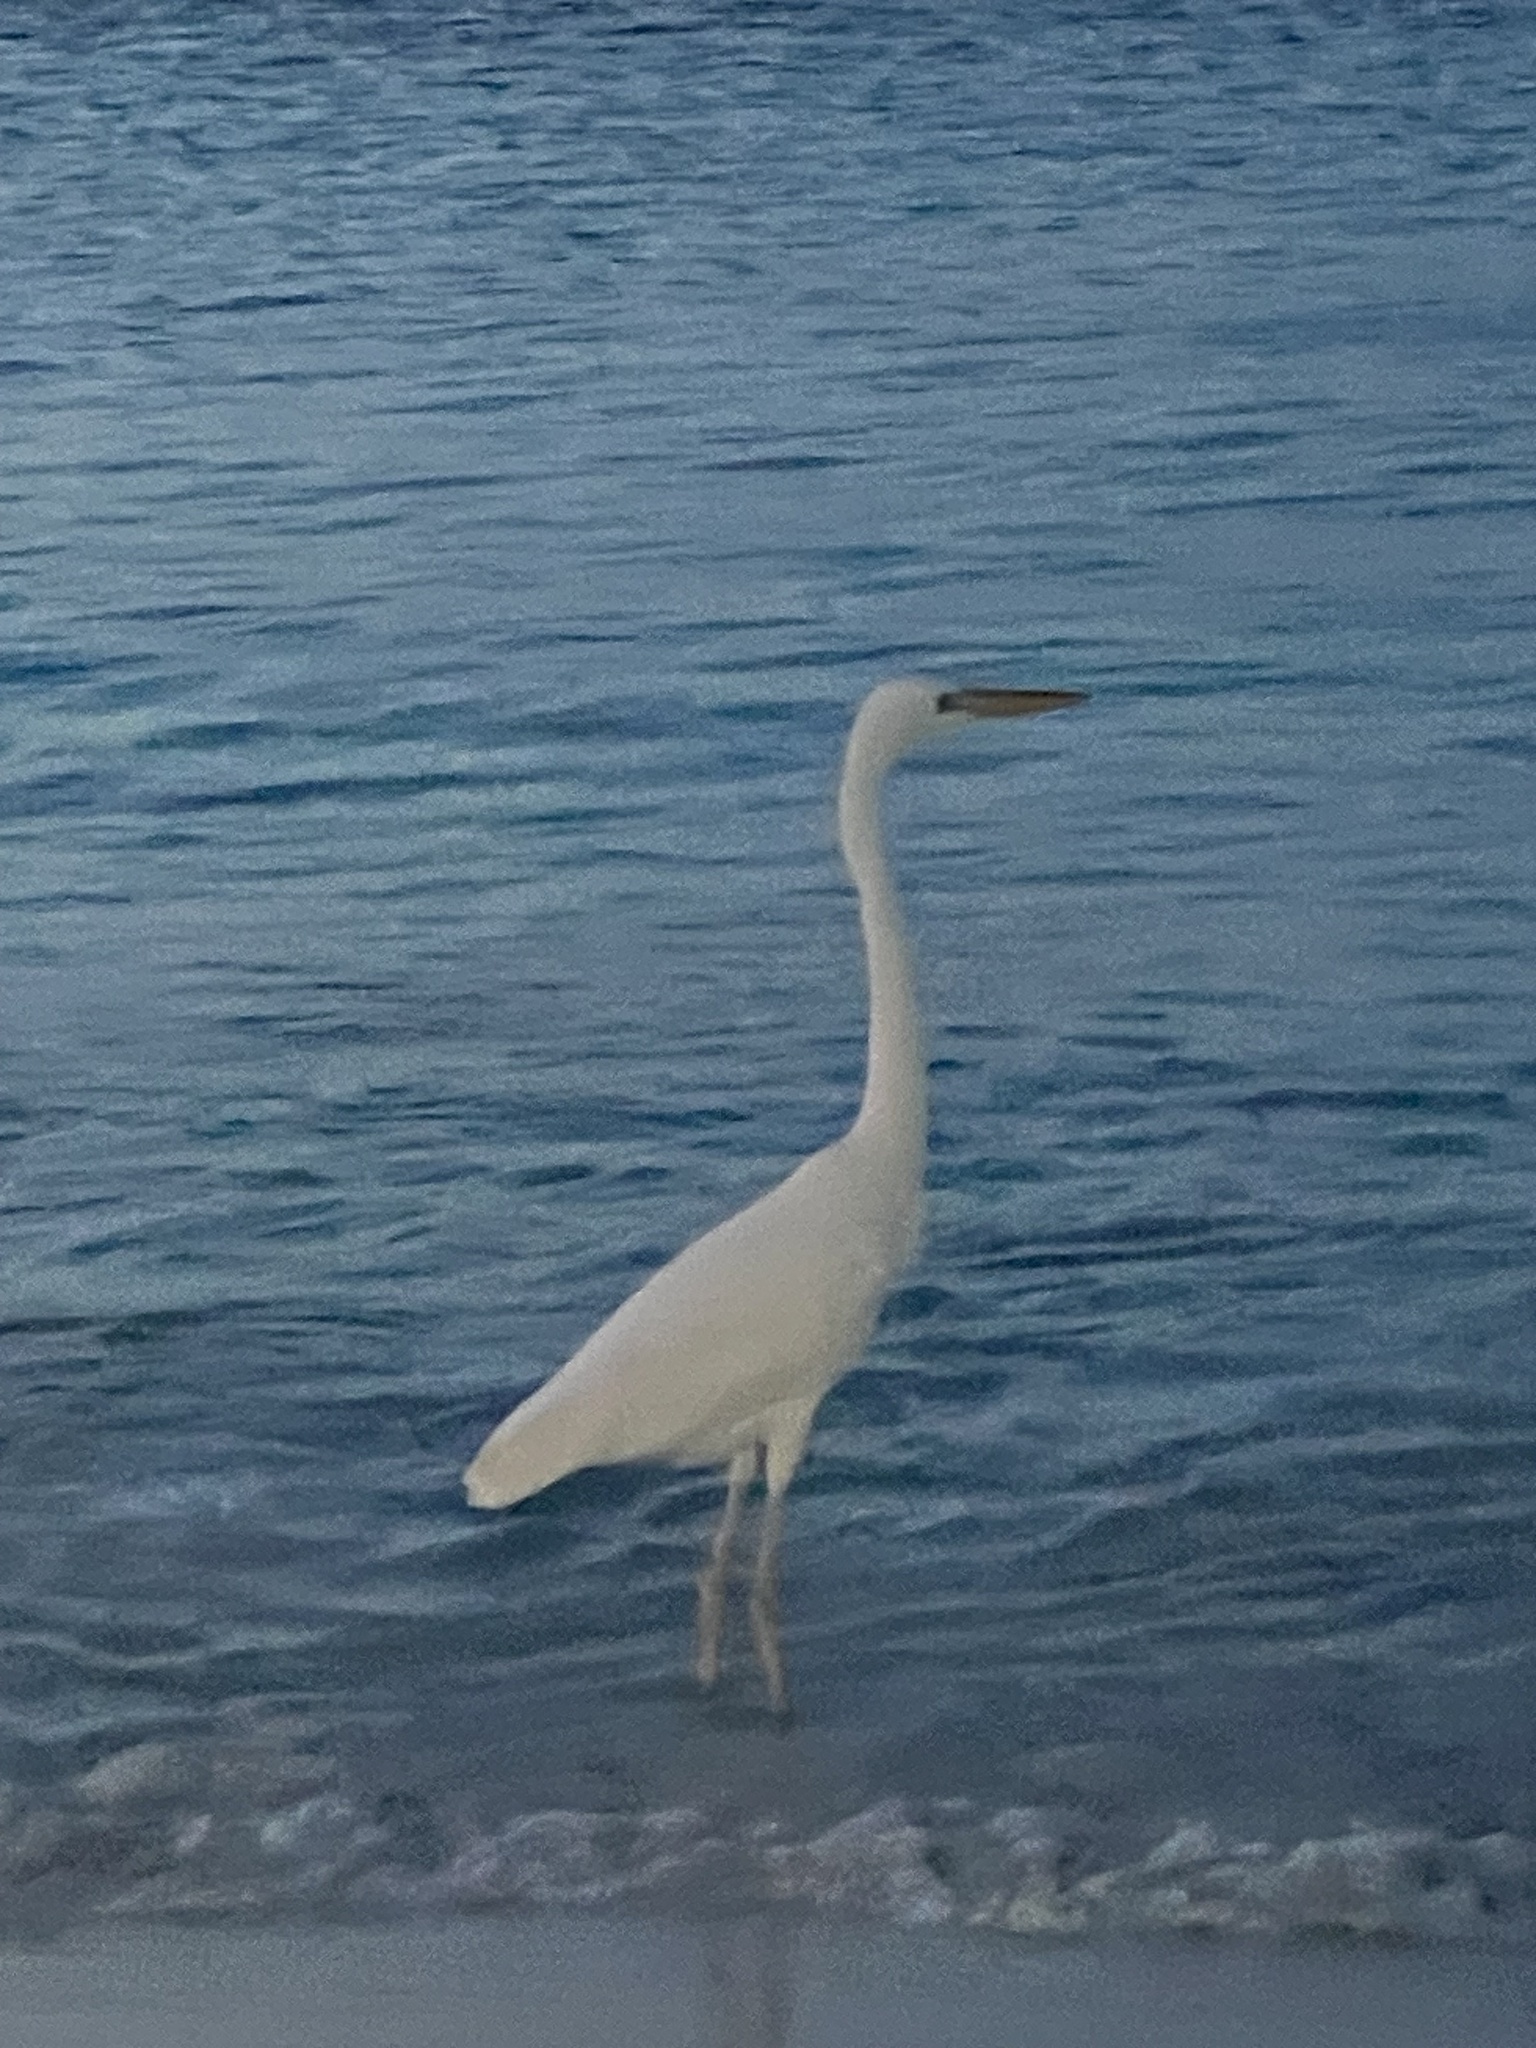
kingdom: Animalia
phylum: Chordata
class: Aves
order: Pelecaniformes
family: Ardeidae
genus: Ardea
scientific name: Ardea herodias
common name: Great blue heron
